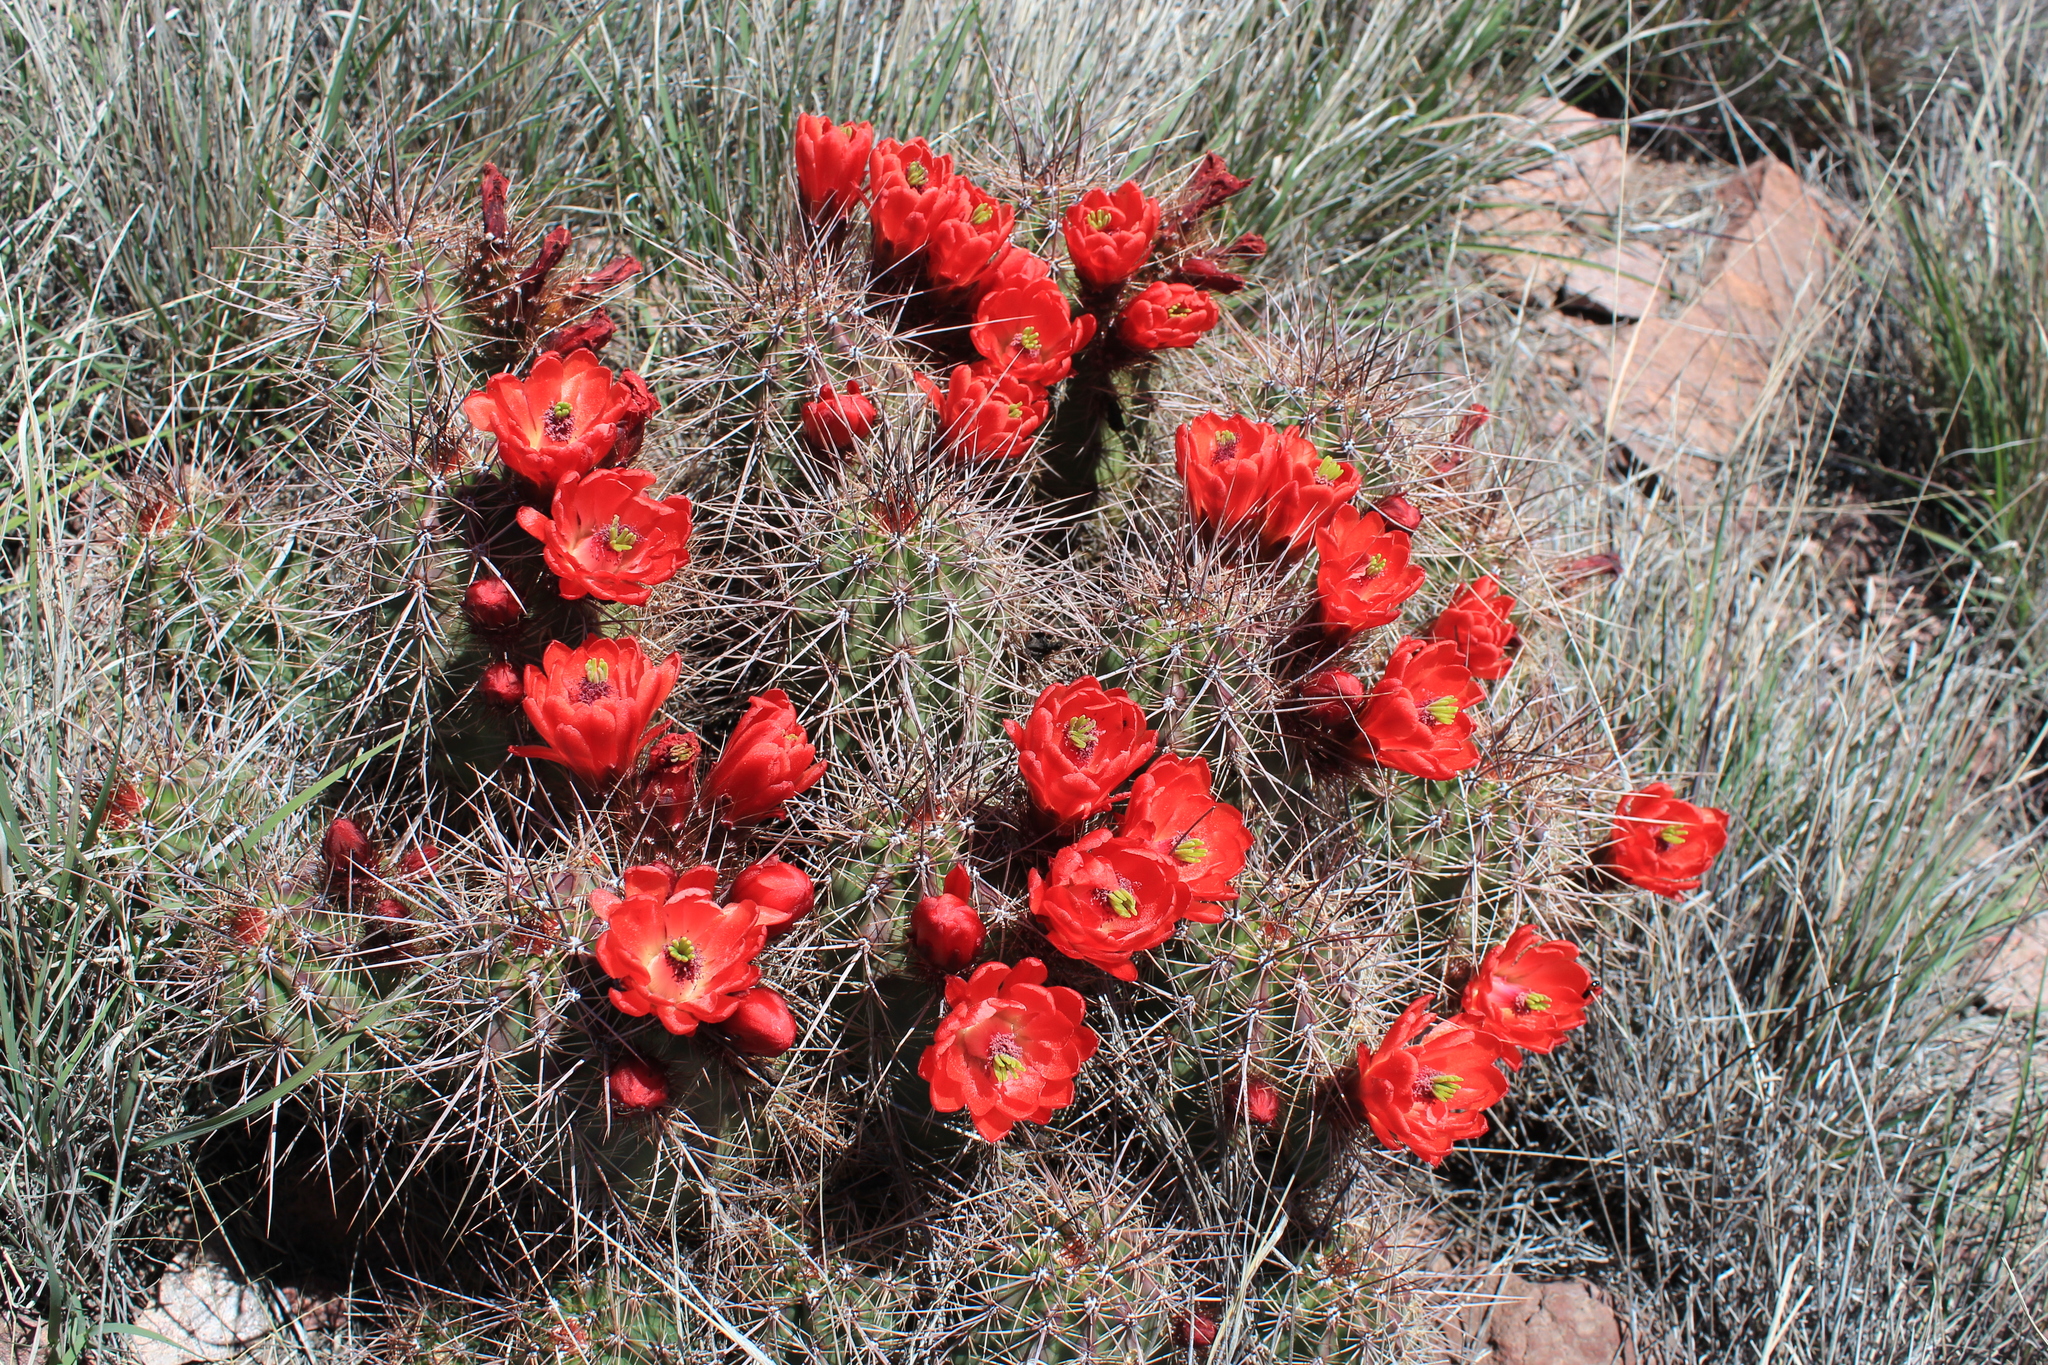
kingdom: Plantae
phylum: Tracheophyta
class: Magnoliopsida
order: Caryophyllales
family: Cactaceae
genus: Echinocereus
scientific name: Echinocereus arizonicus
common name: Arizona hedgehog cactus
